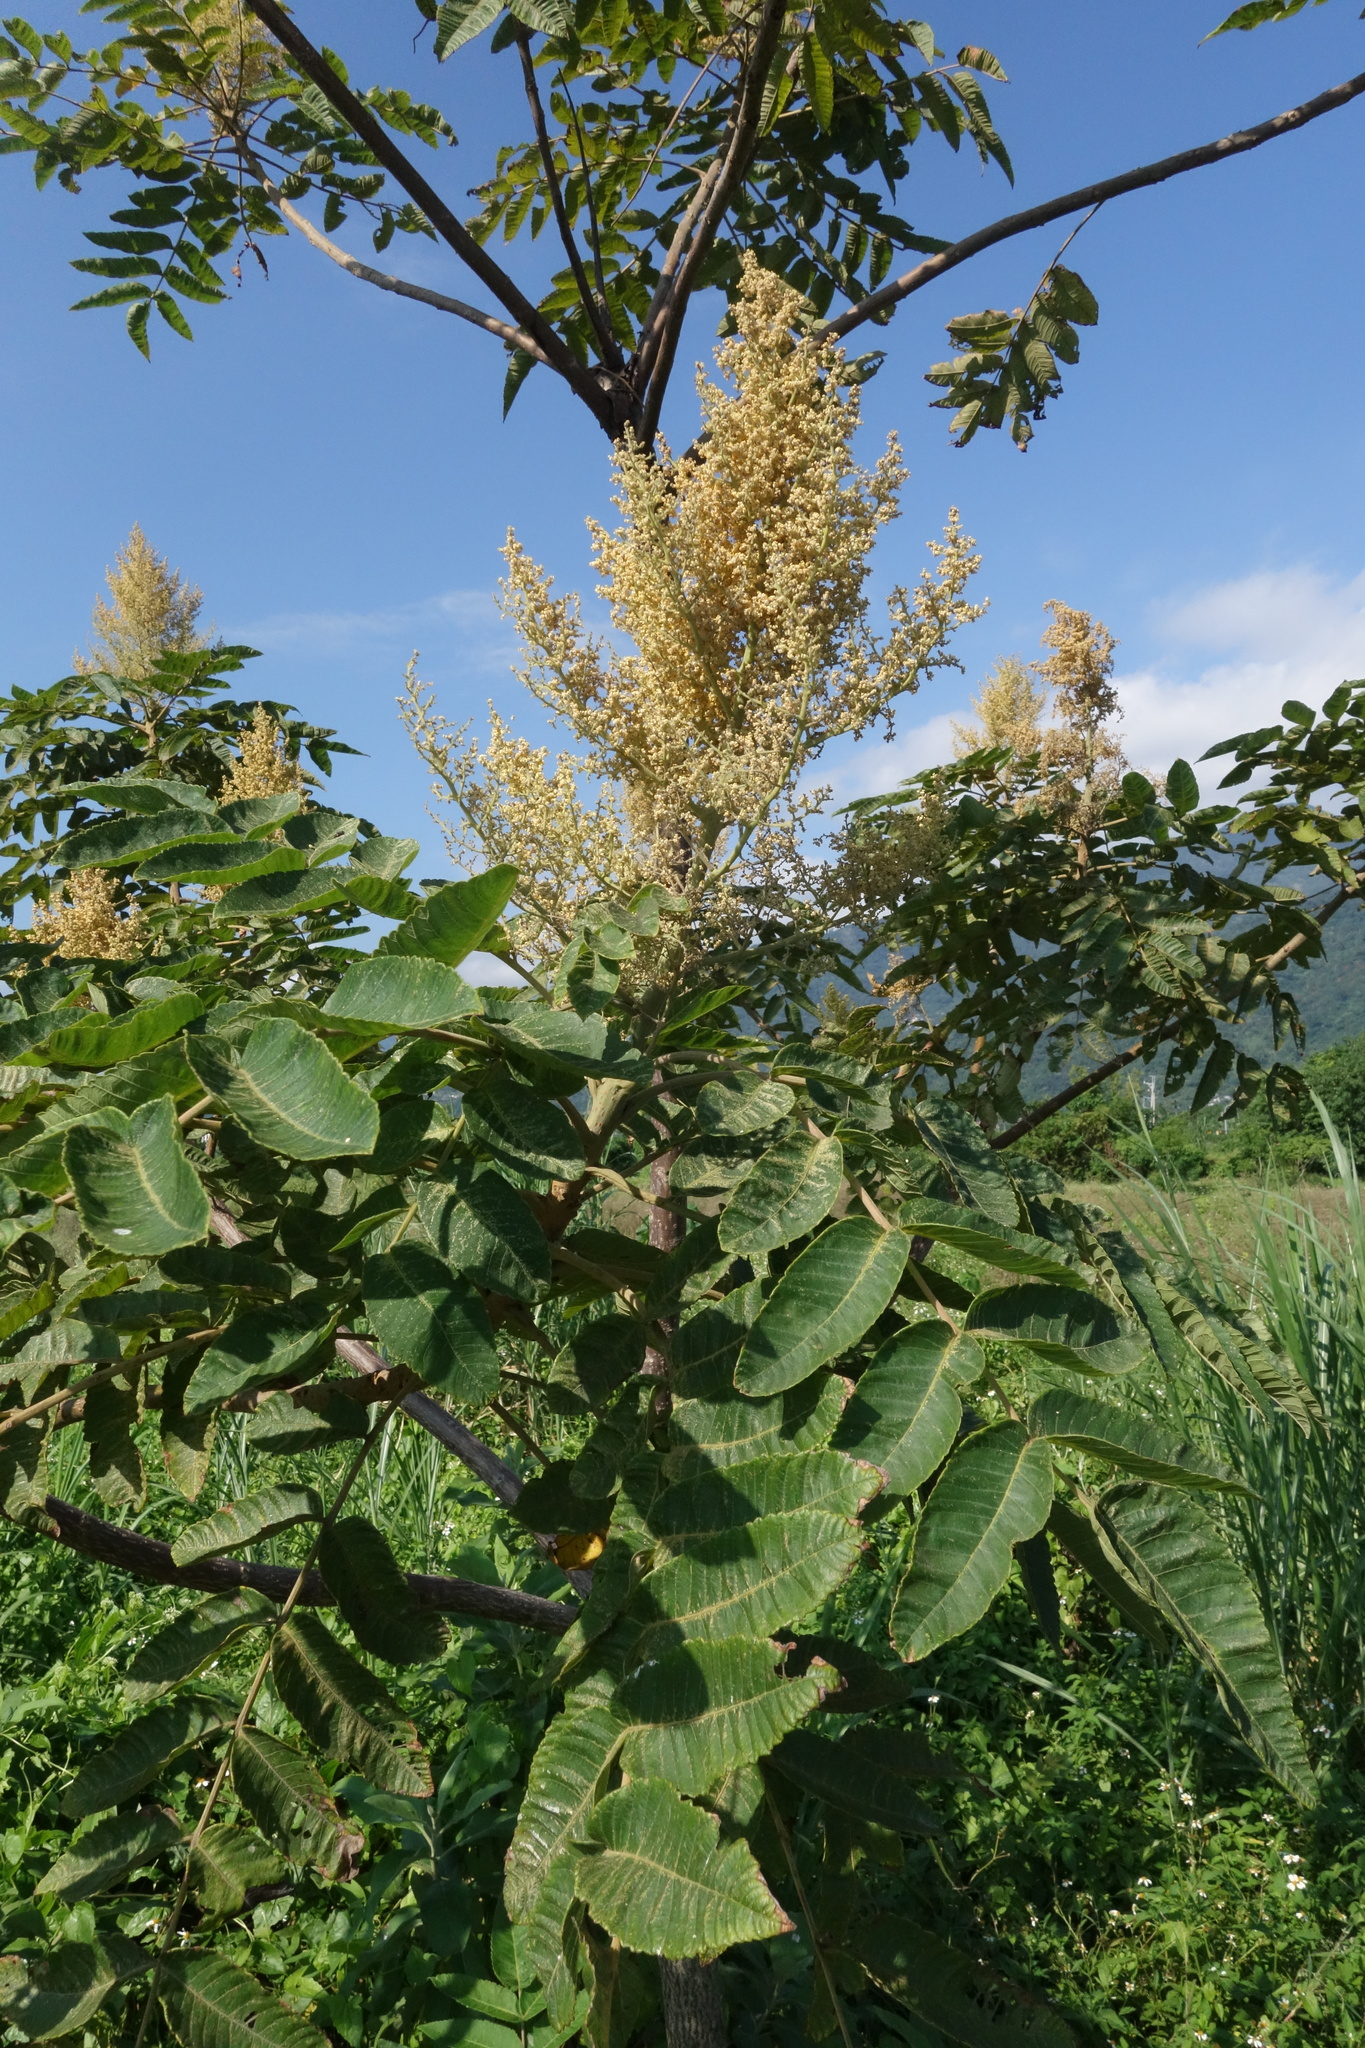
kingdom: Plantae
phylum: Tracheophyta
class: Magnoliopsida
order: Sapindales
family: Anacardiaceae
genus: Rhus
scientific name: Rhus chinensis
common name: Chinese gall
